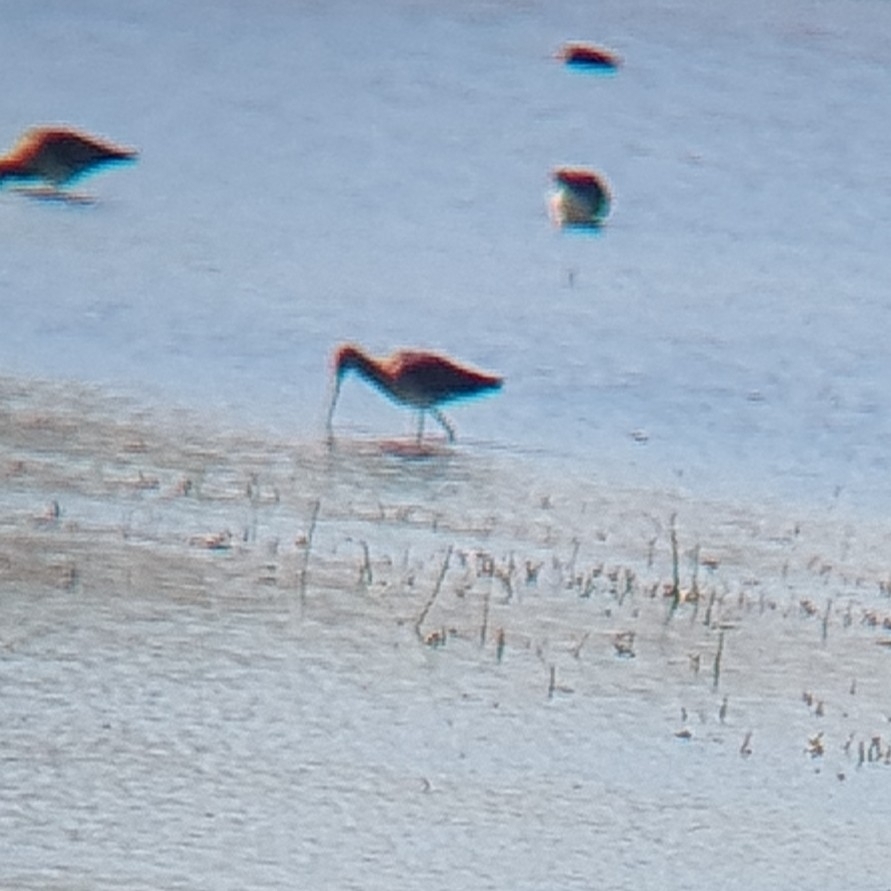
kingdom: Animalia
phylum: Chordata
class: Aves
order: Charadriiformes
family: Scolopacidae
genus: Limosa
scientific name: Limosa limosa
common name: Black-tailed godwit
